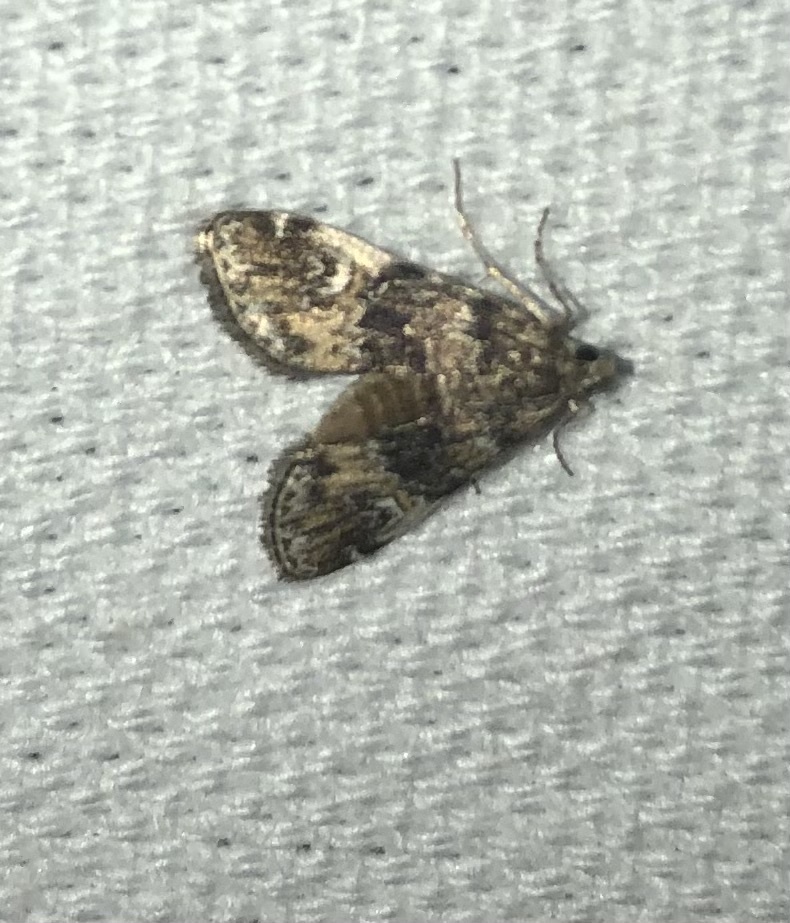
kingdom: Animalia
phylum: Arthropoda
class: Insecta
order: Lepidoptera
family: Crambidae
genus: Elophila
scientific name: Elophila obliteralis
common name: Waterlily leafcutter moth
